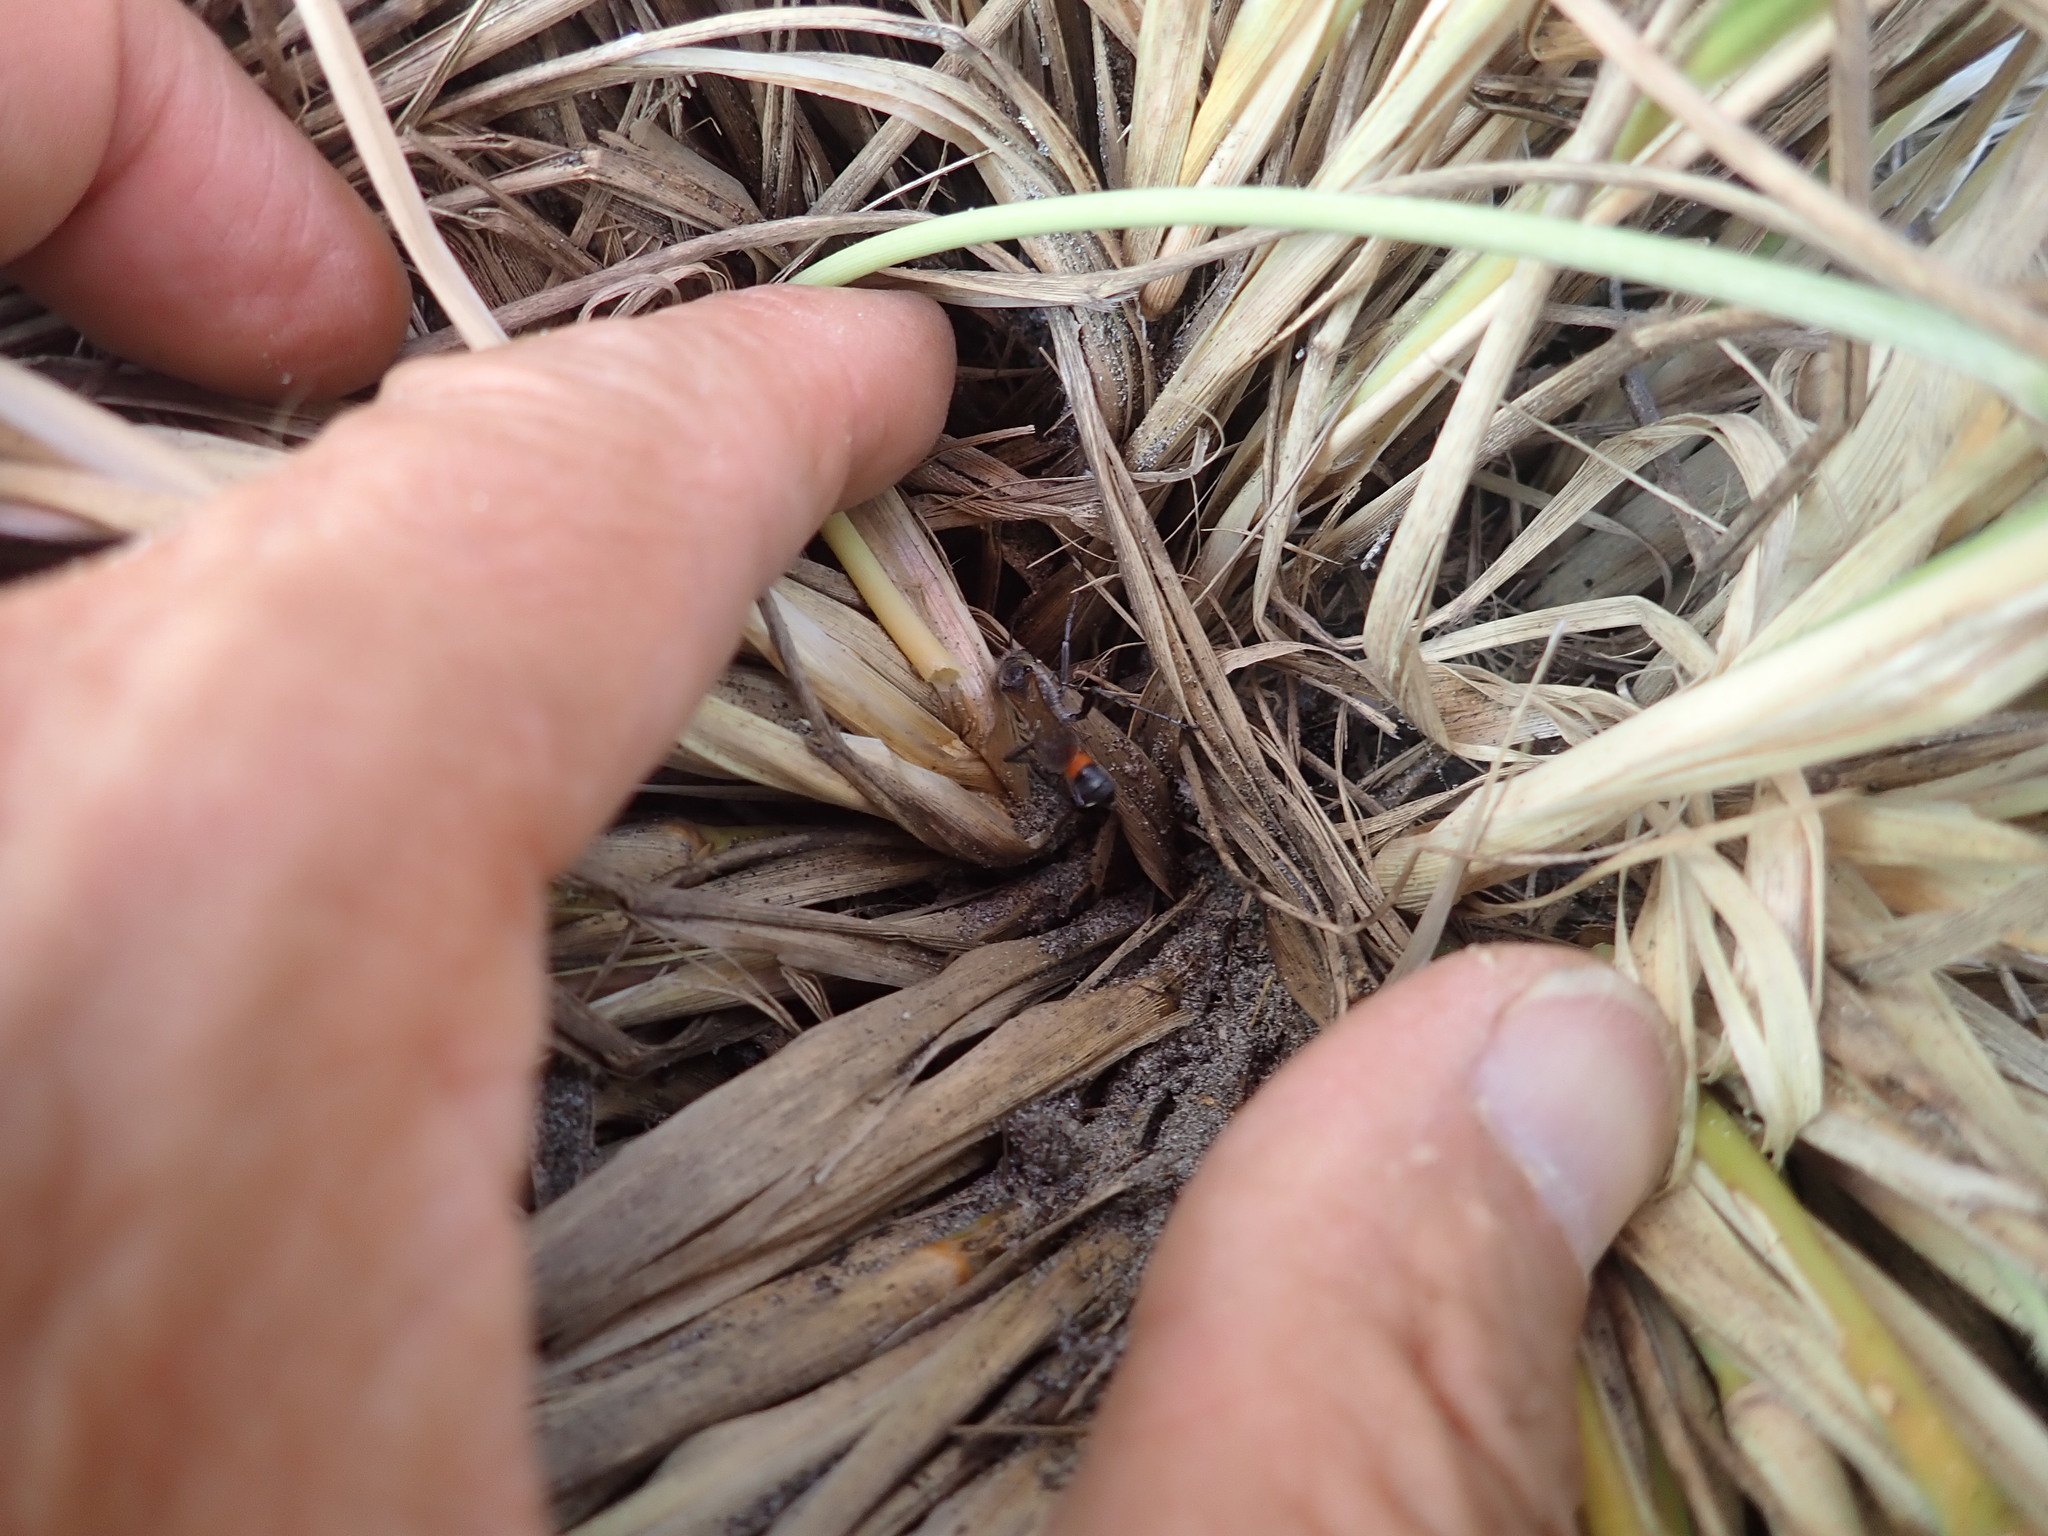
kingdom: Animalia
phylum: Arthropoda
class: Insecta
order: Hymenoptera
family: Sphecidae
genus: Podalonia
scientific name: Podalonia tydei
